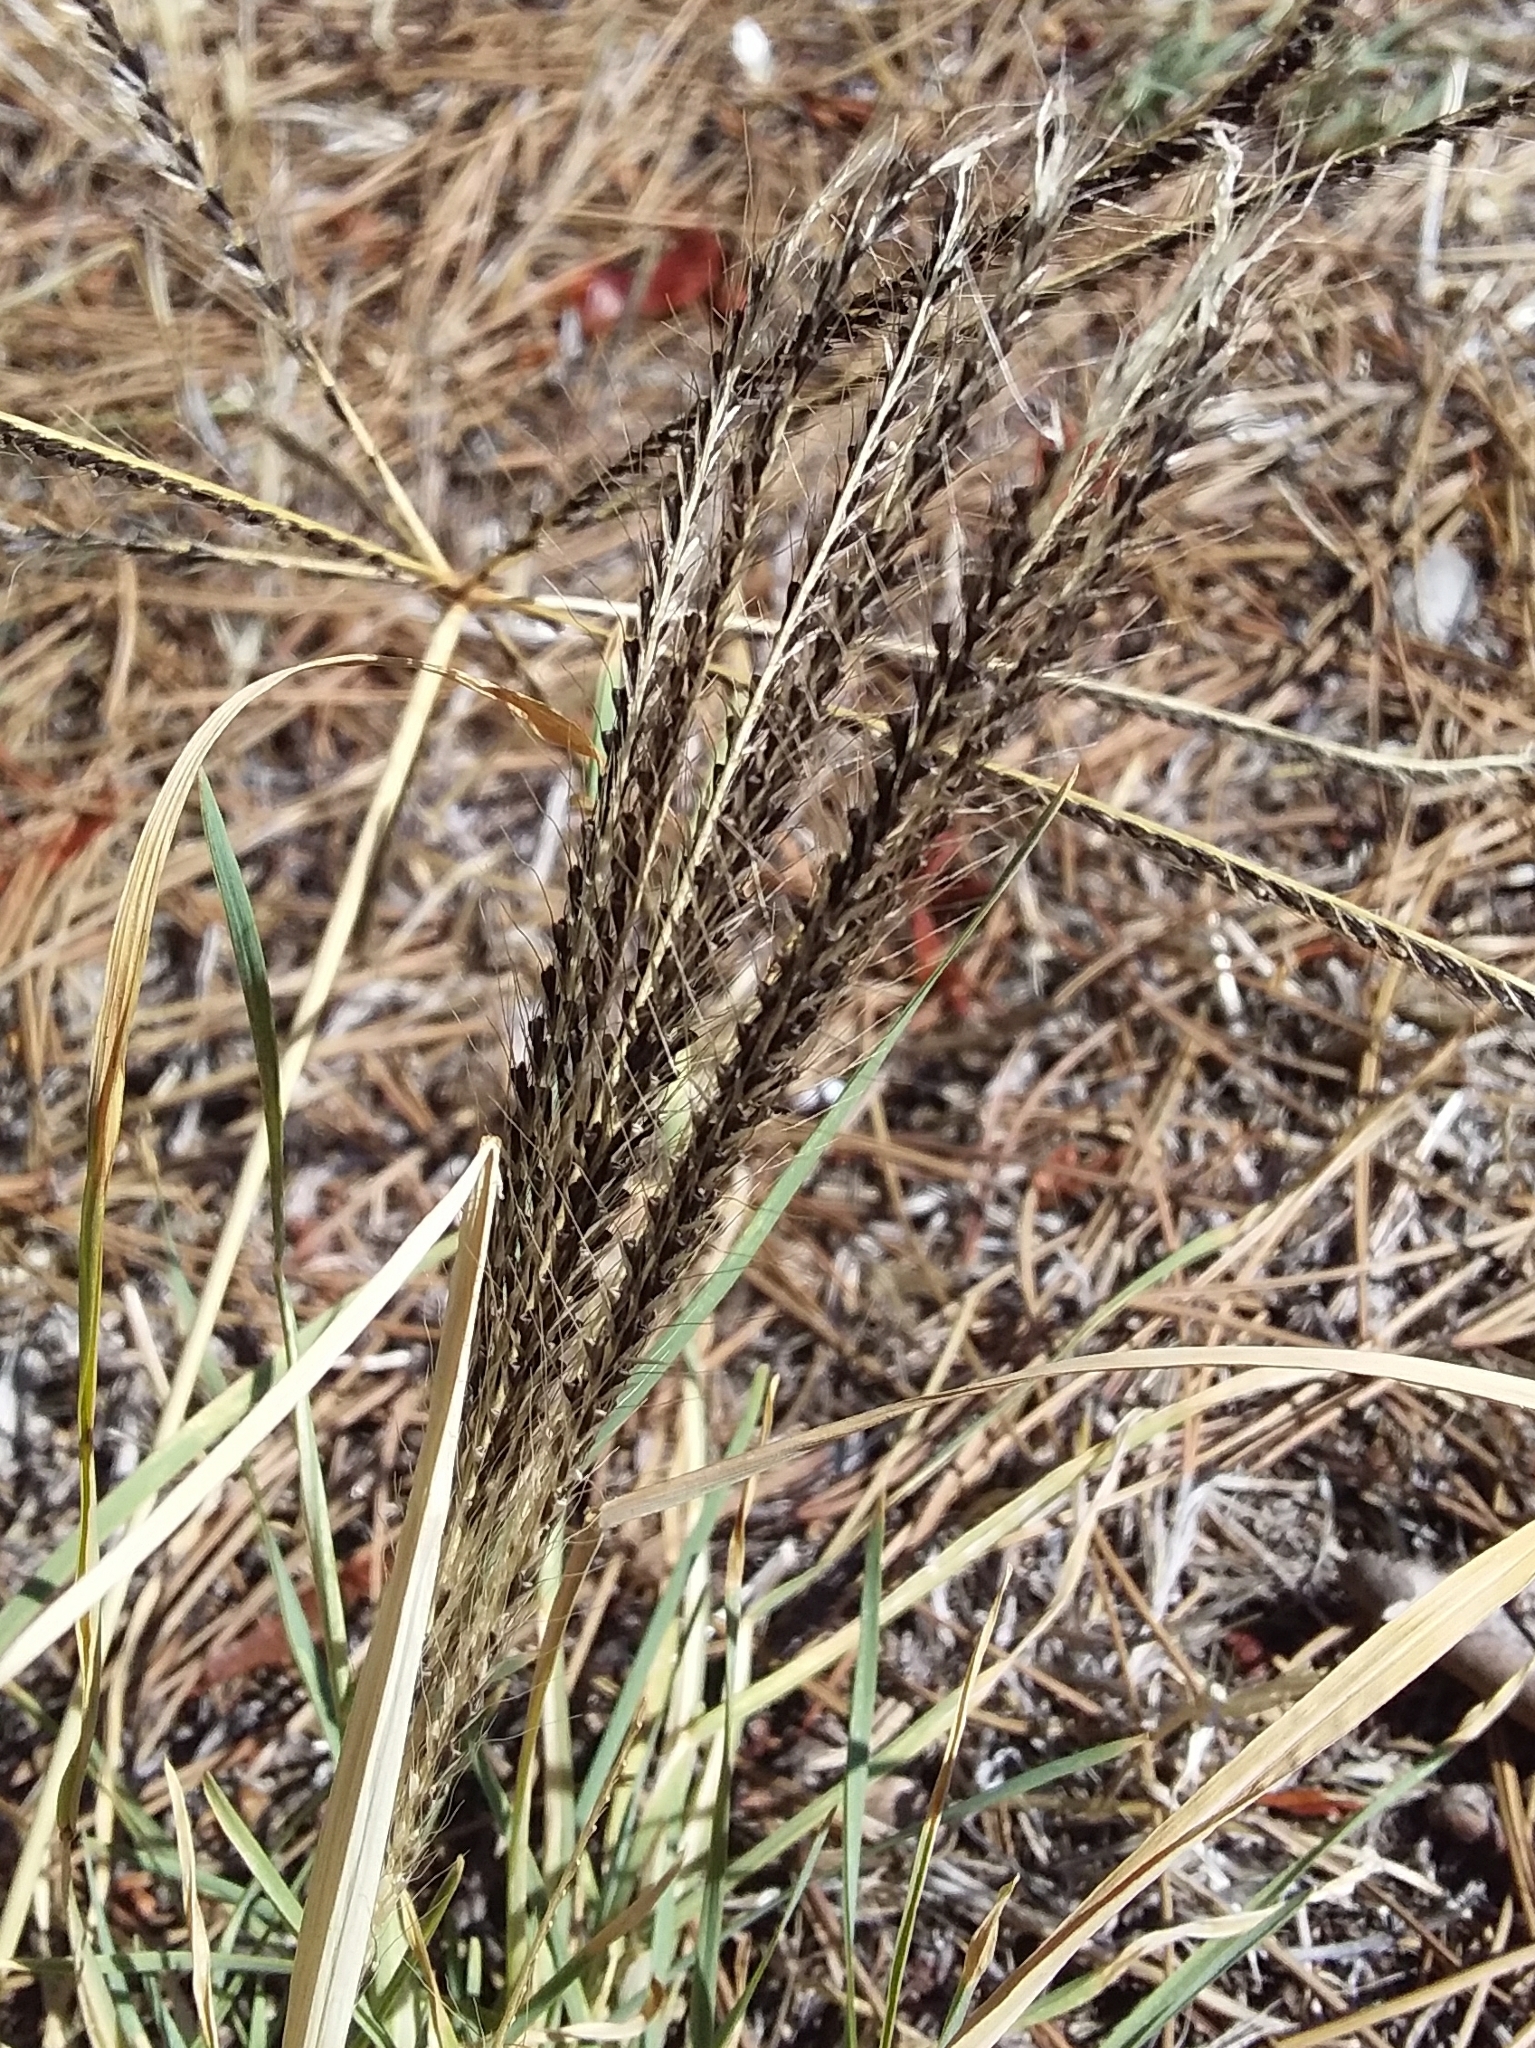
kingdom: Plantae
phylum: Tracheophyta
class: Liliopsida
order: Poales
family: Poaceae
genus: Chloris
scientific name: Chloris truncata
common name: Windmill-grass
